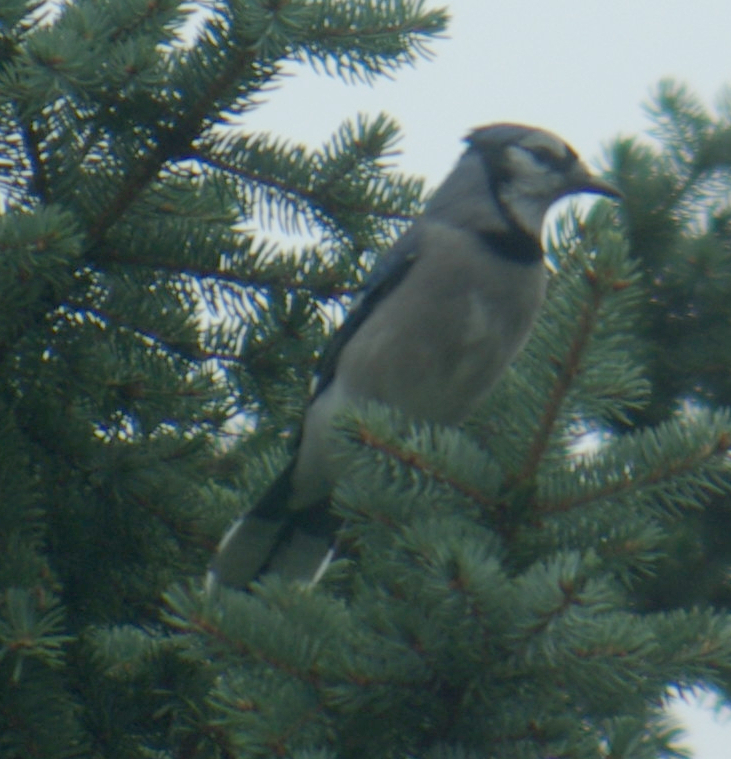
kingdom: Animalia
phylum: Chordata
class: Aves
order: Passeriformes
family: Corvidae
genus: Cyanocitta
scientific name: Cyanocitta cristata
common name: Blue jay
